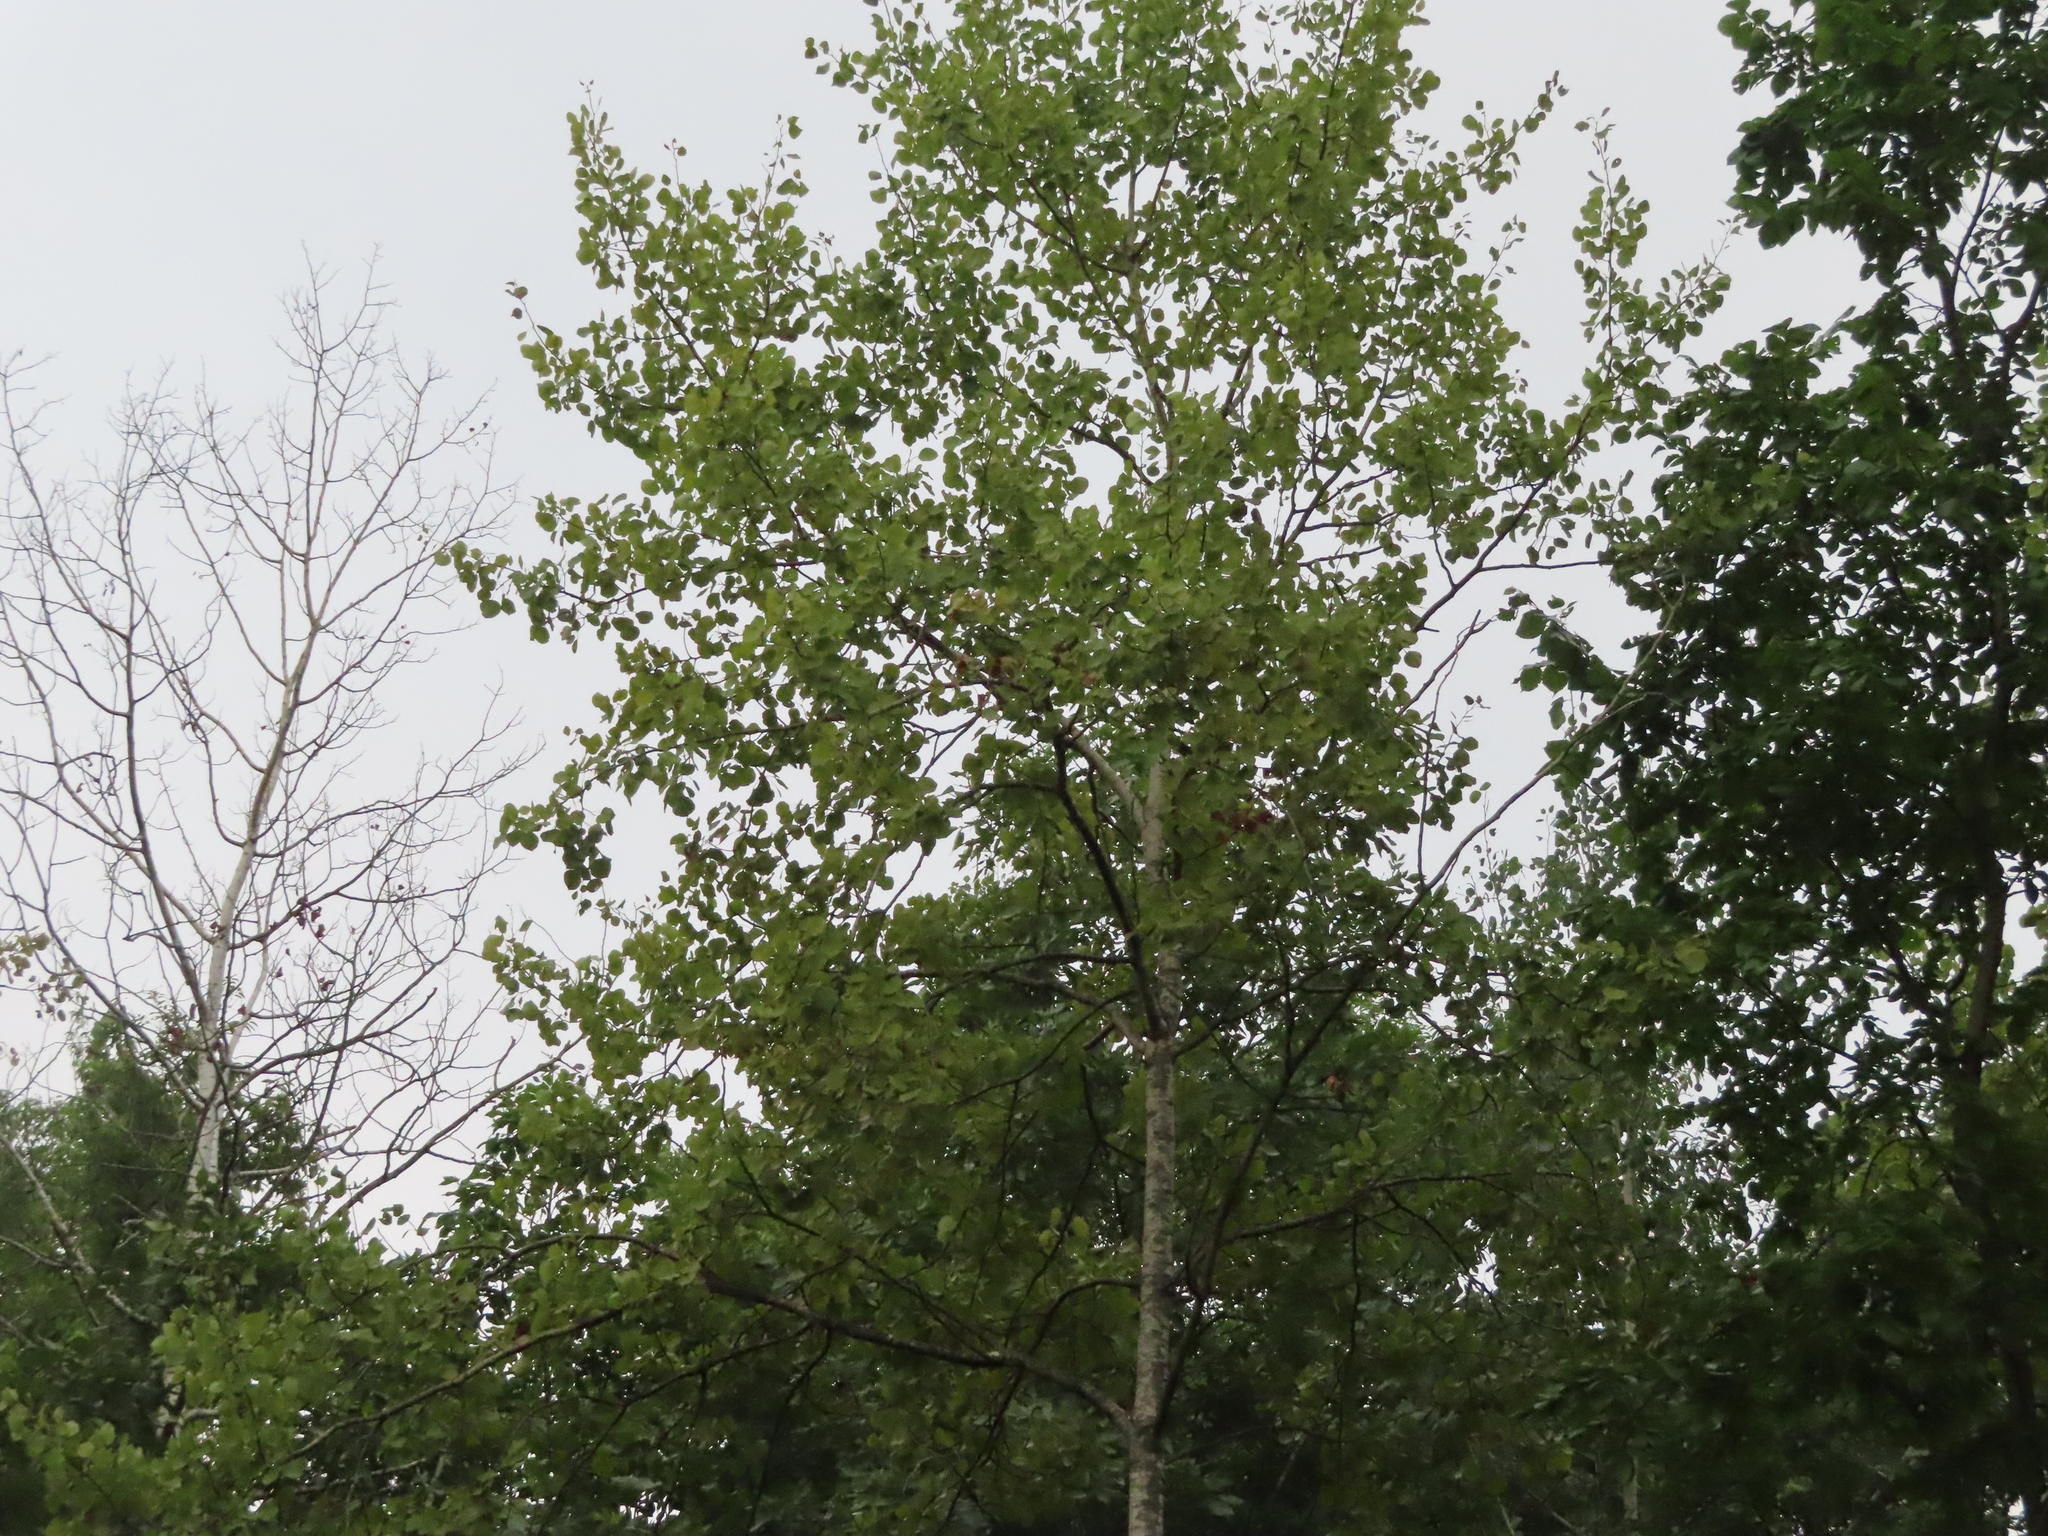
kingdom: Plantae
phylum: Tracheophyta
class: Magnoliopsida
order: Malpighiales
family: Salicaceae
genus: Populus
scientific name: Populus tremuloides
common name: Quaking aspen
